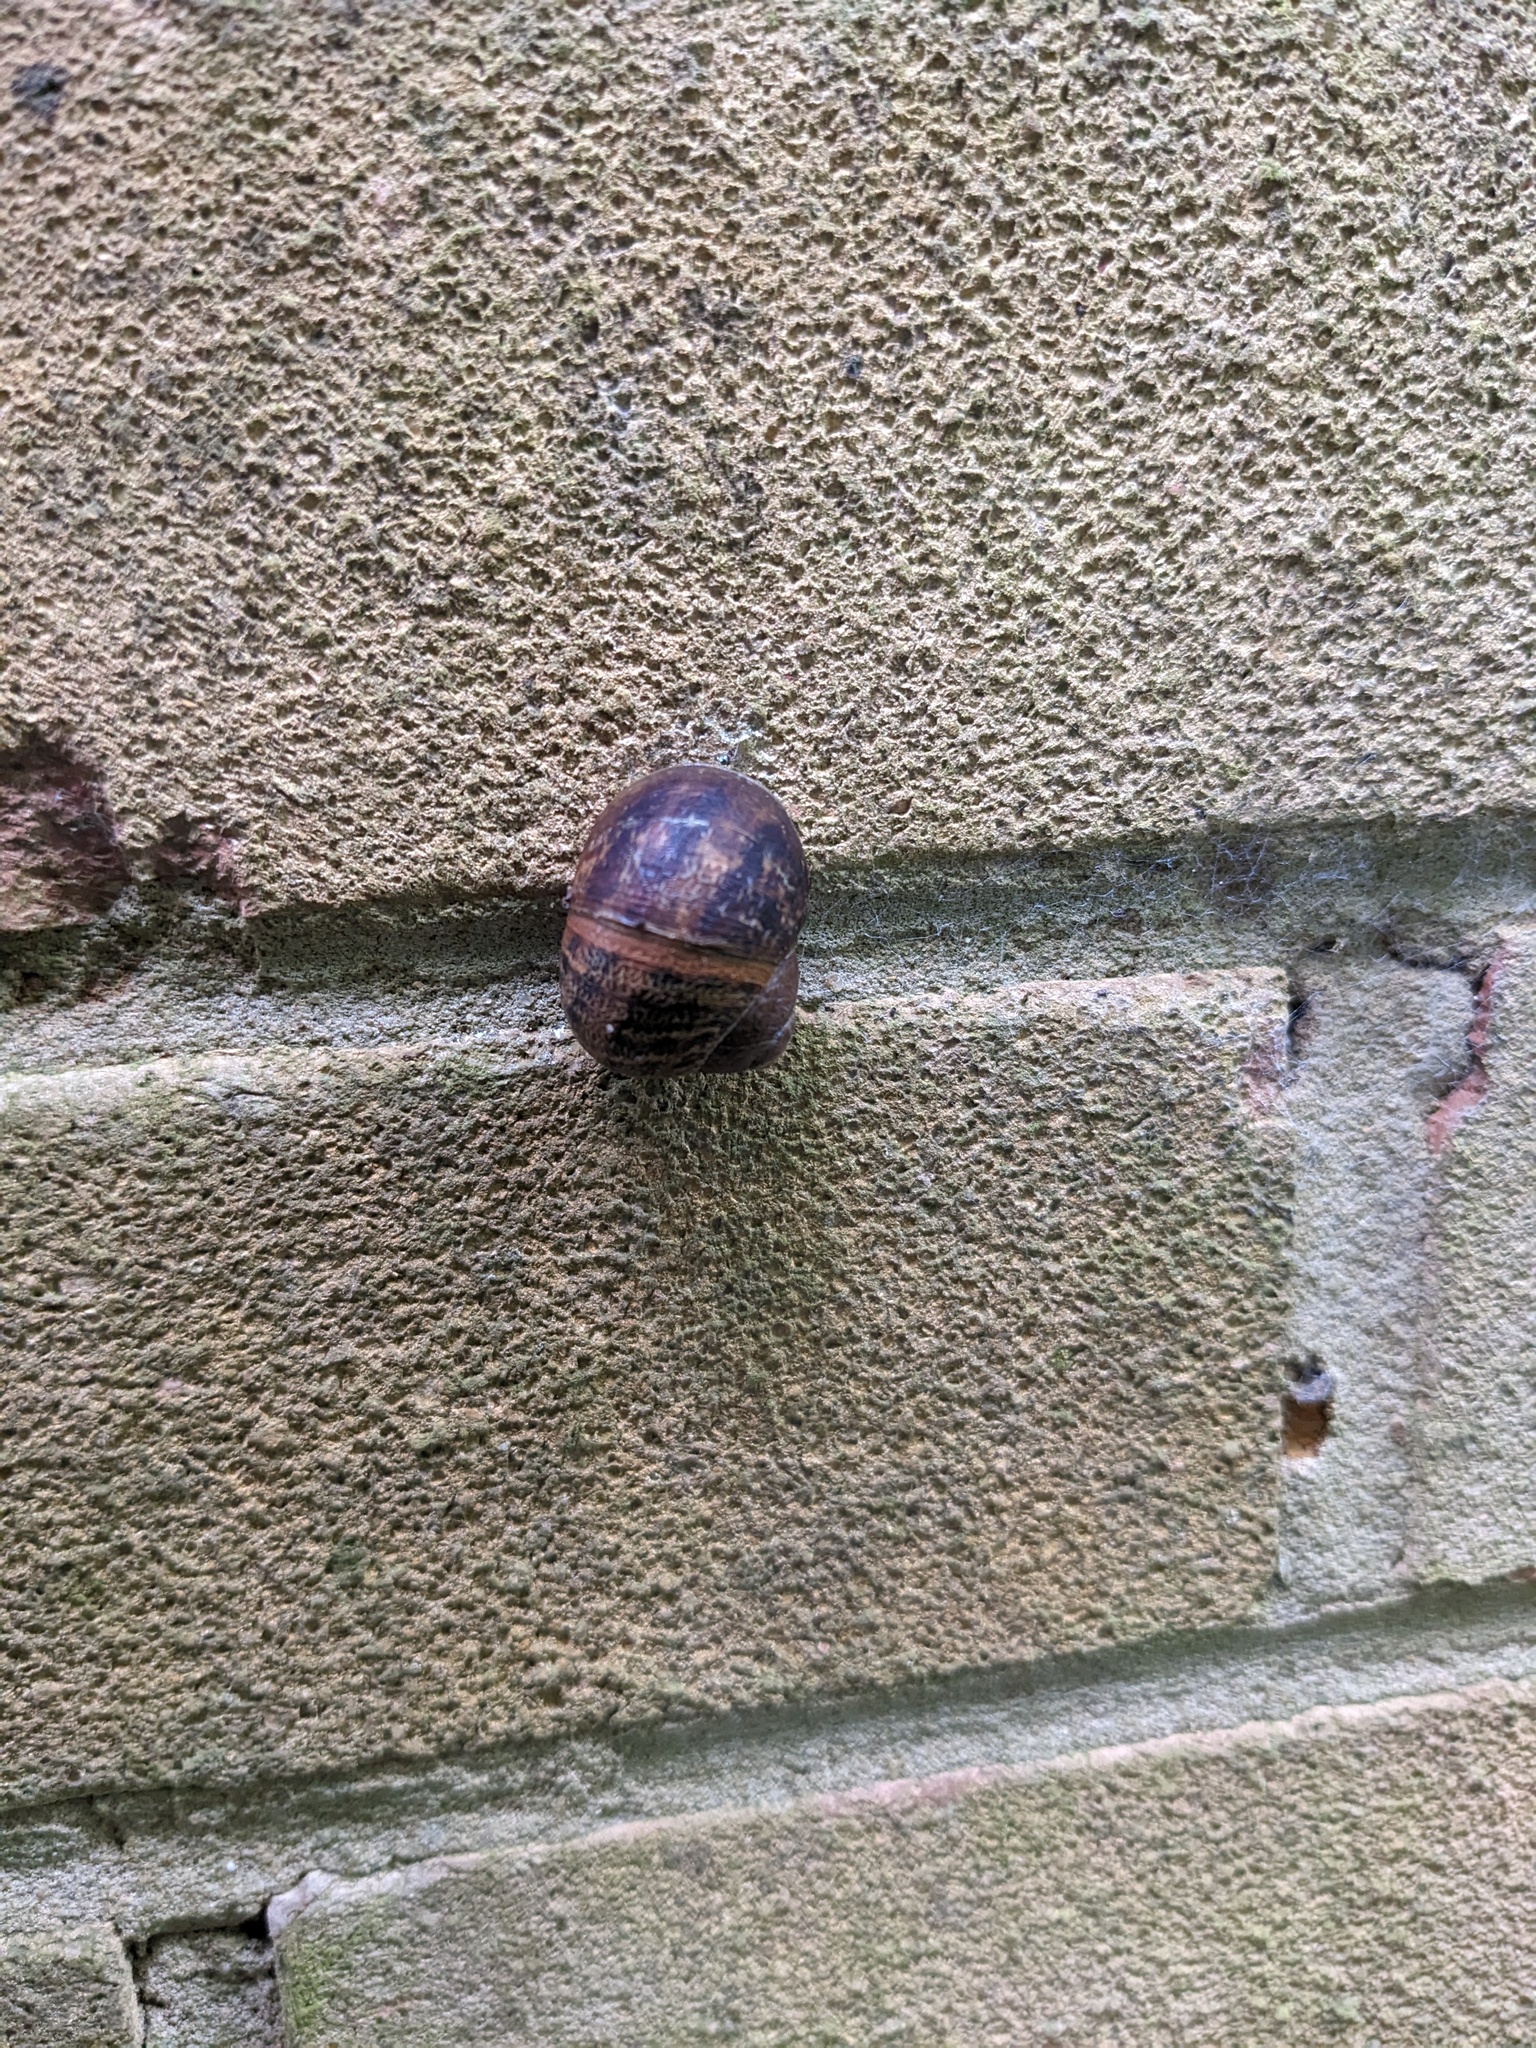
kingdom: Animalia
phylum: Mollusca
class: Gastropoda
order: Stylommatophora
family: Helicidae
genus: Cornu
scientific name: Cornu aspersum
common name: Brown garden snail
